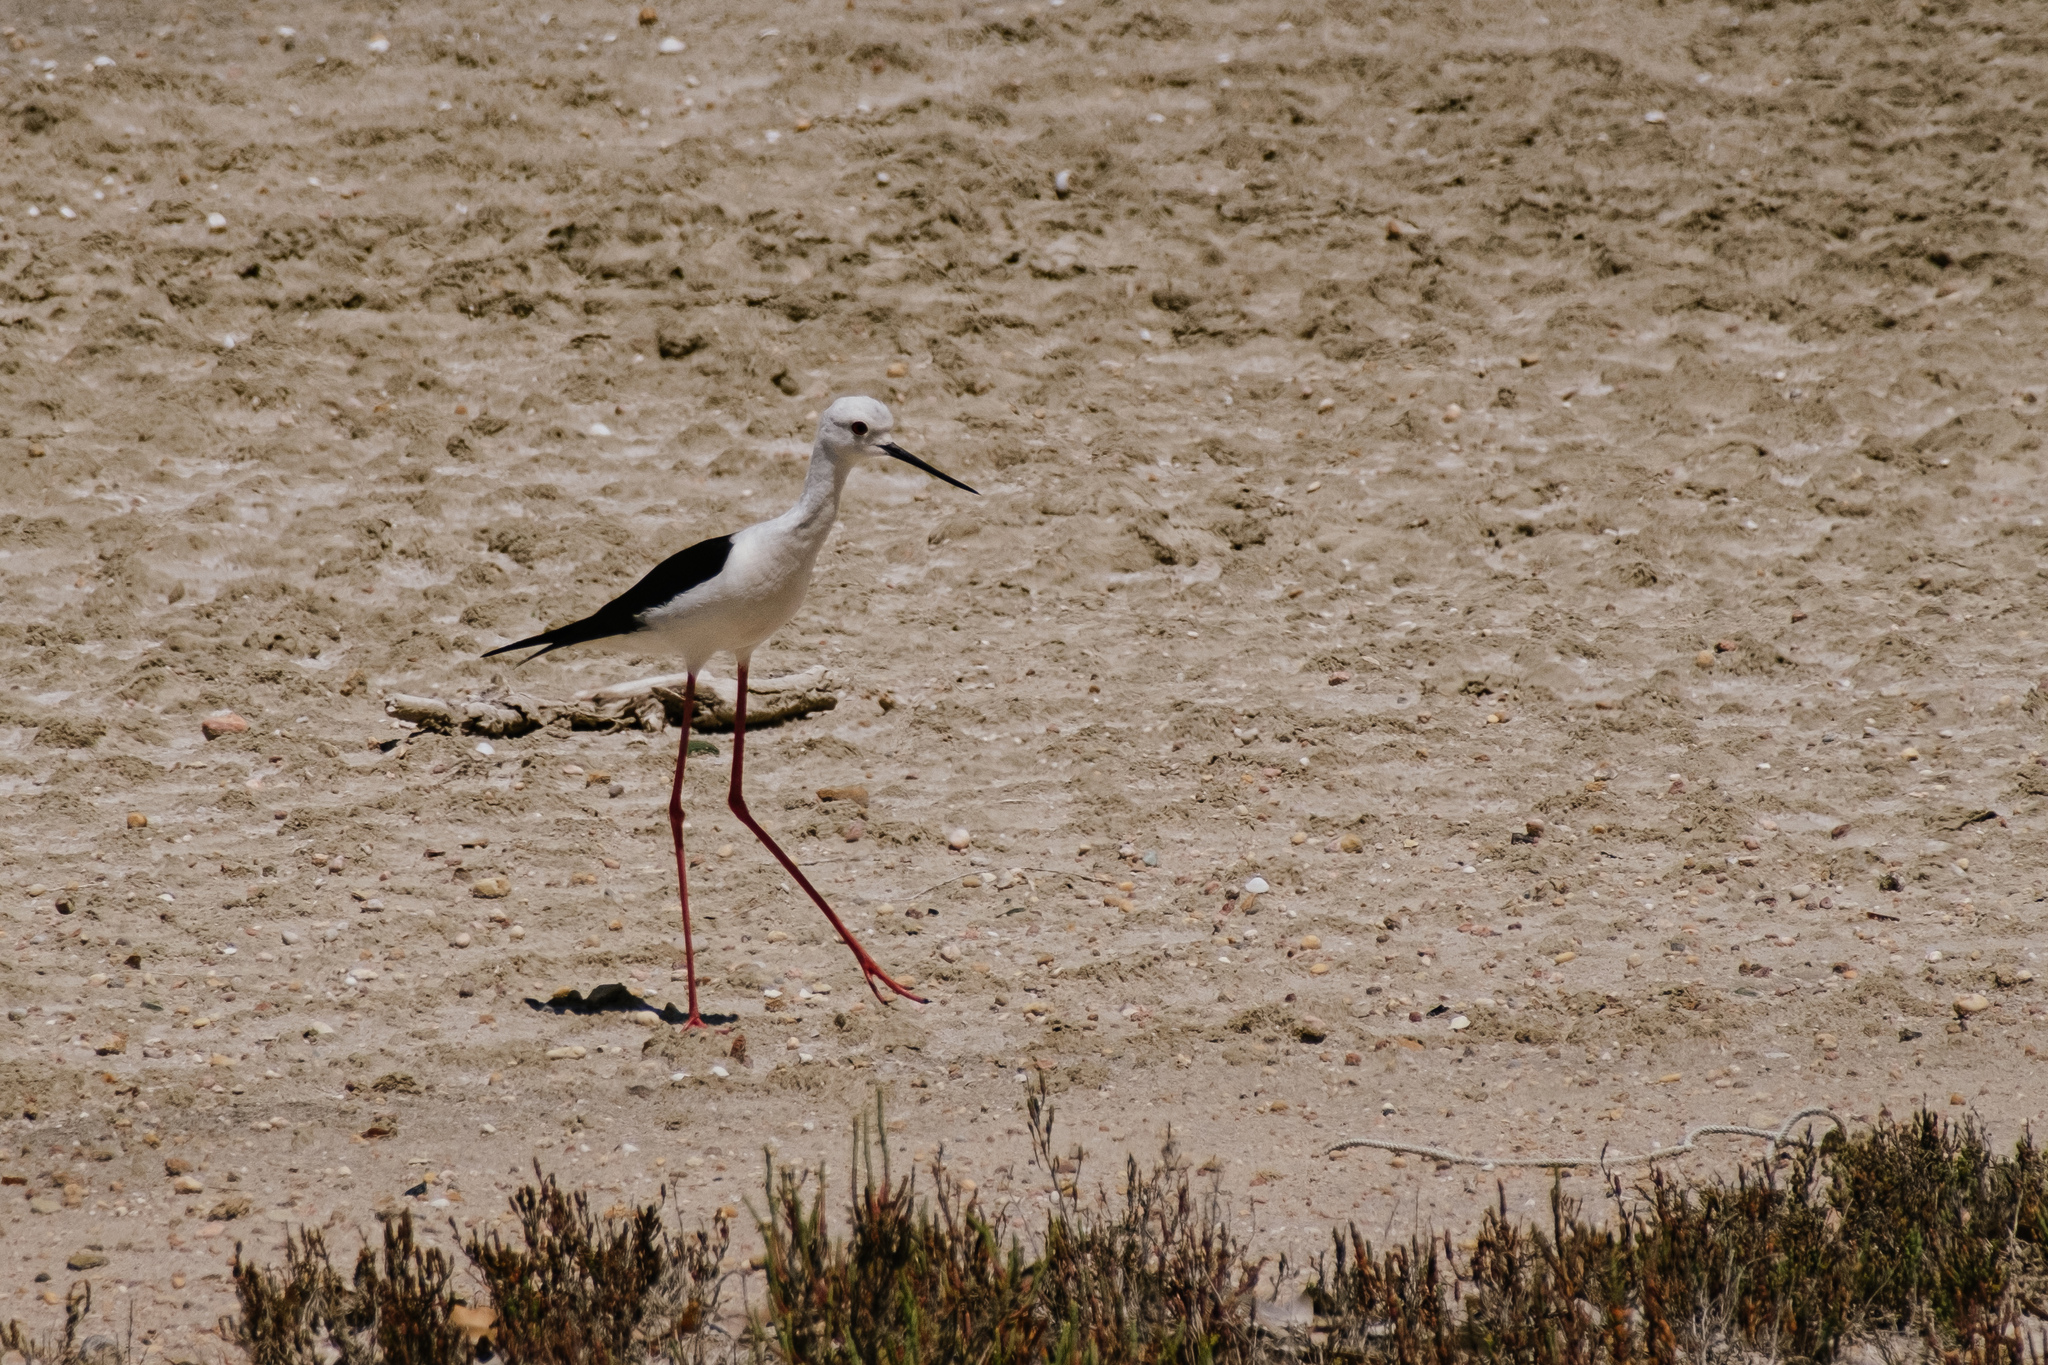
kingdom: Animalia
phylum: Chordata
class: Aves
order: Charadriiformes
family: Recurvirostridae
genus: Himantopus
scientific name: Himantopus himantopus
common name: Black-winged stilt
